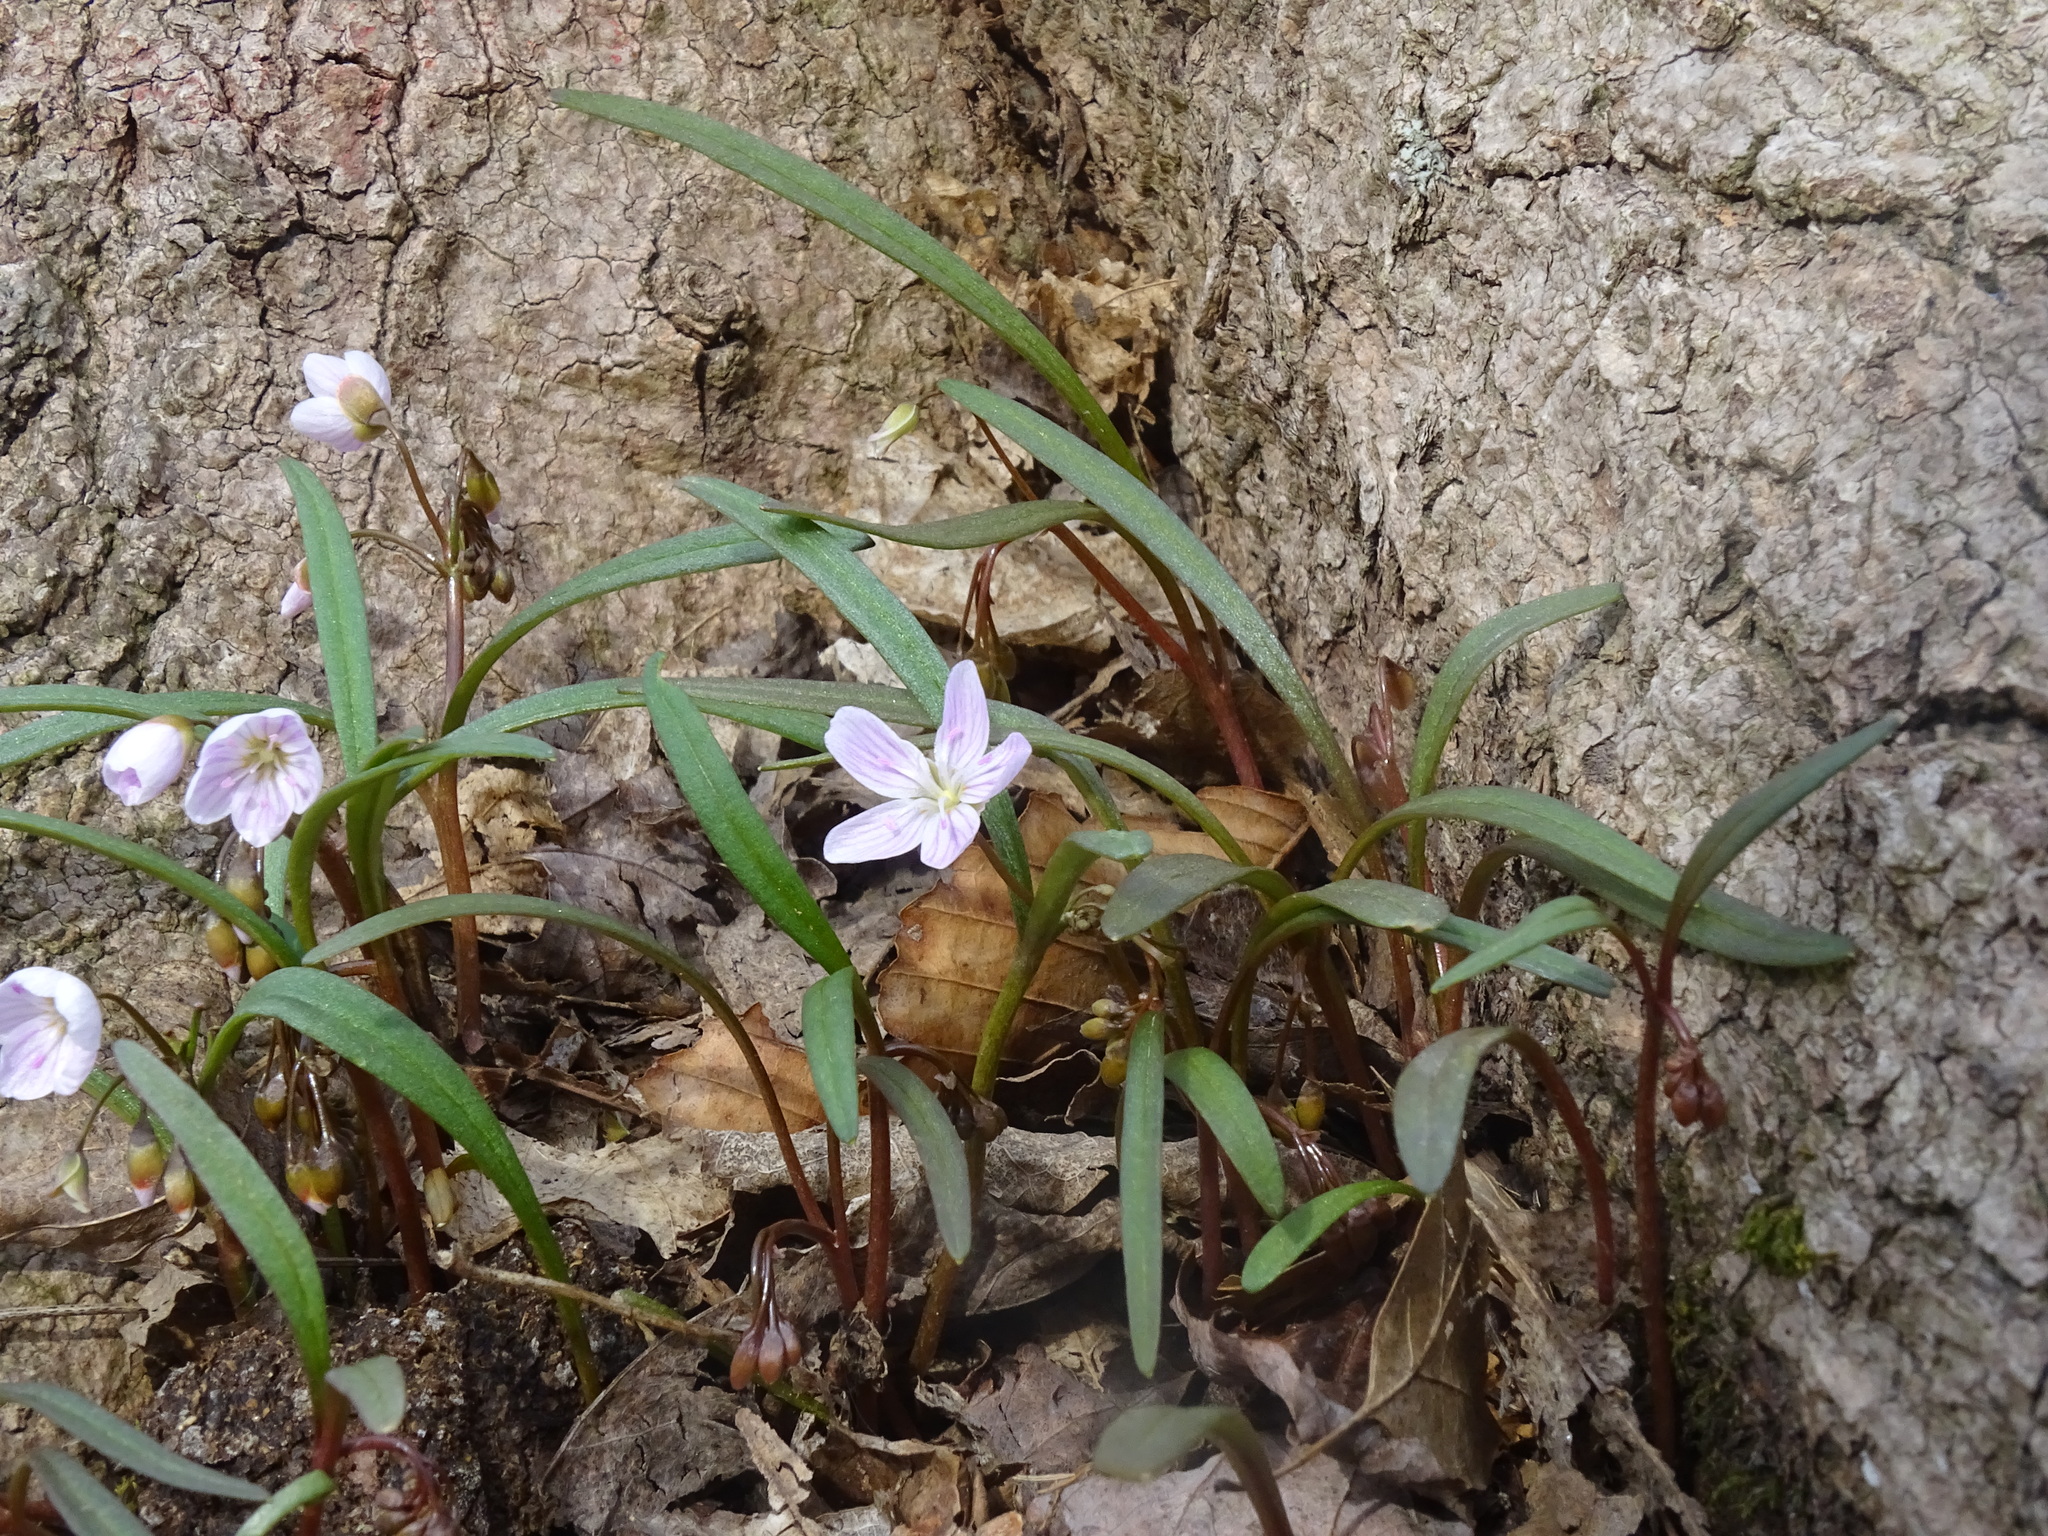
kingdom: Plantae
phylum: Tracheophyta
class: Magnoliopsida
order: Caryophyllales
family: Montiaceae
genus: Claytonia
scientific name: Claytonia virginica
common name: Virginia springbeauty
